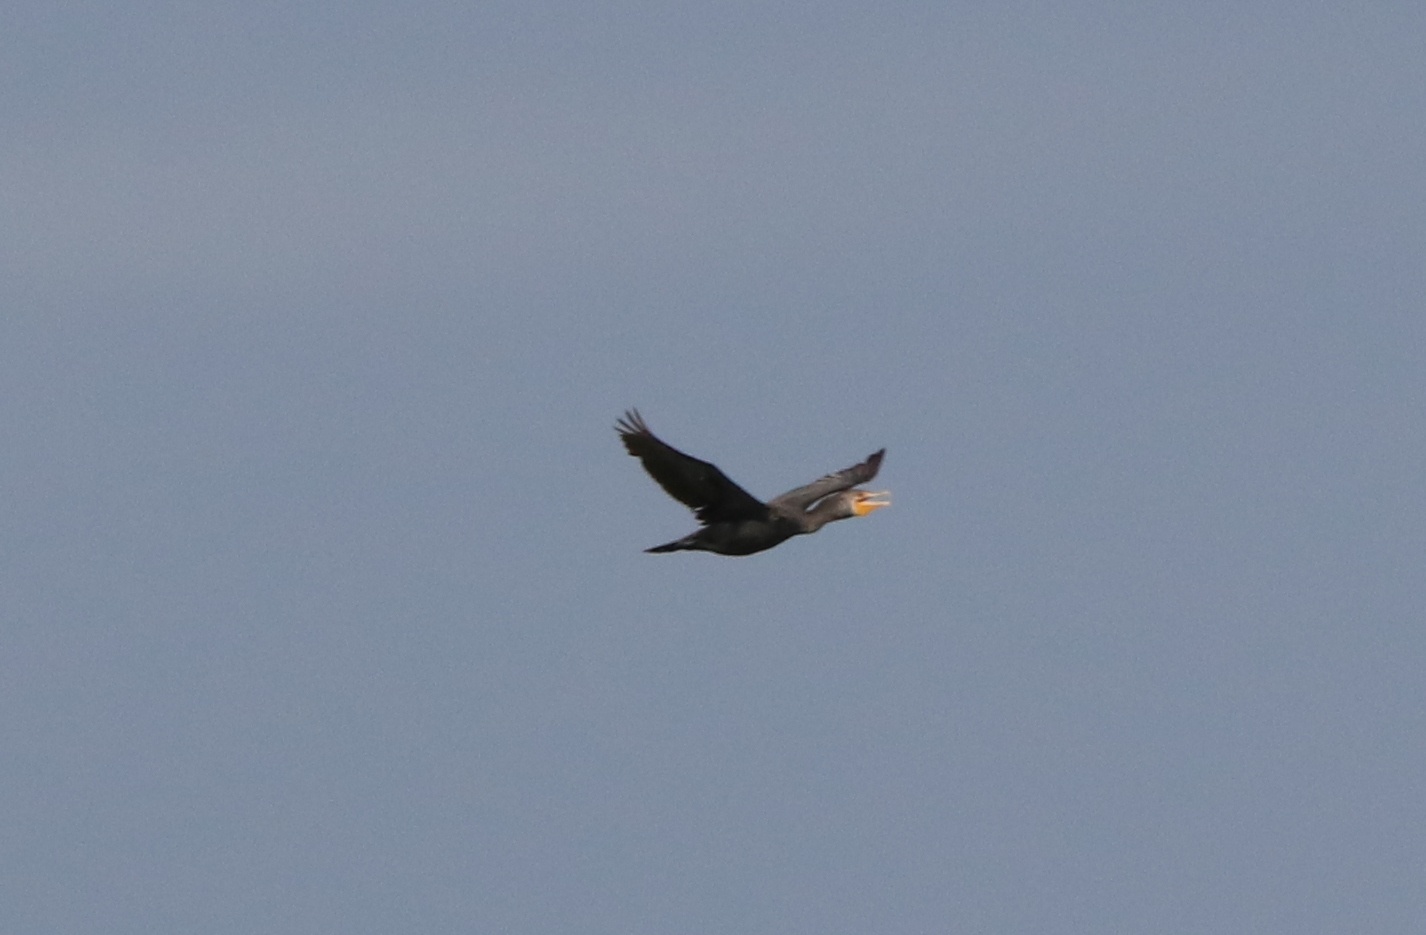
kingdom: Animalia
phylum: Chordata
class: Aves
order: Suliformes
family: Phalacrocoracidae
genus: Phalacrocorax
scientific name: Phalacrocorax auritus
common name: Double-crested cormorant
